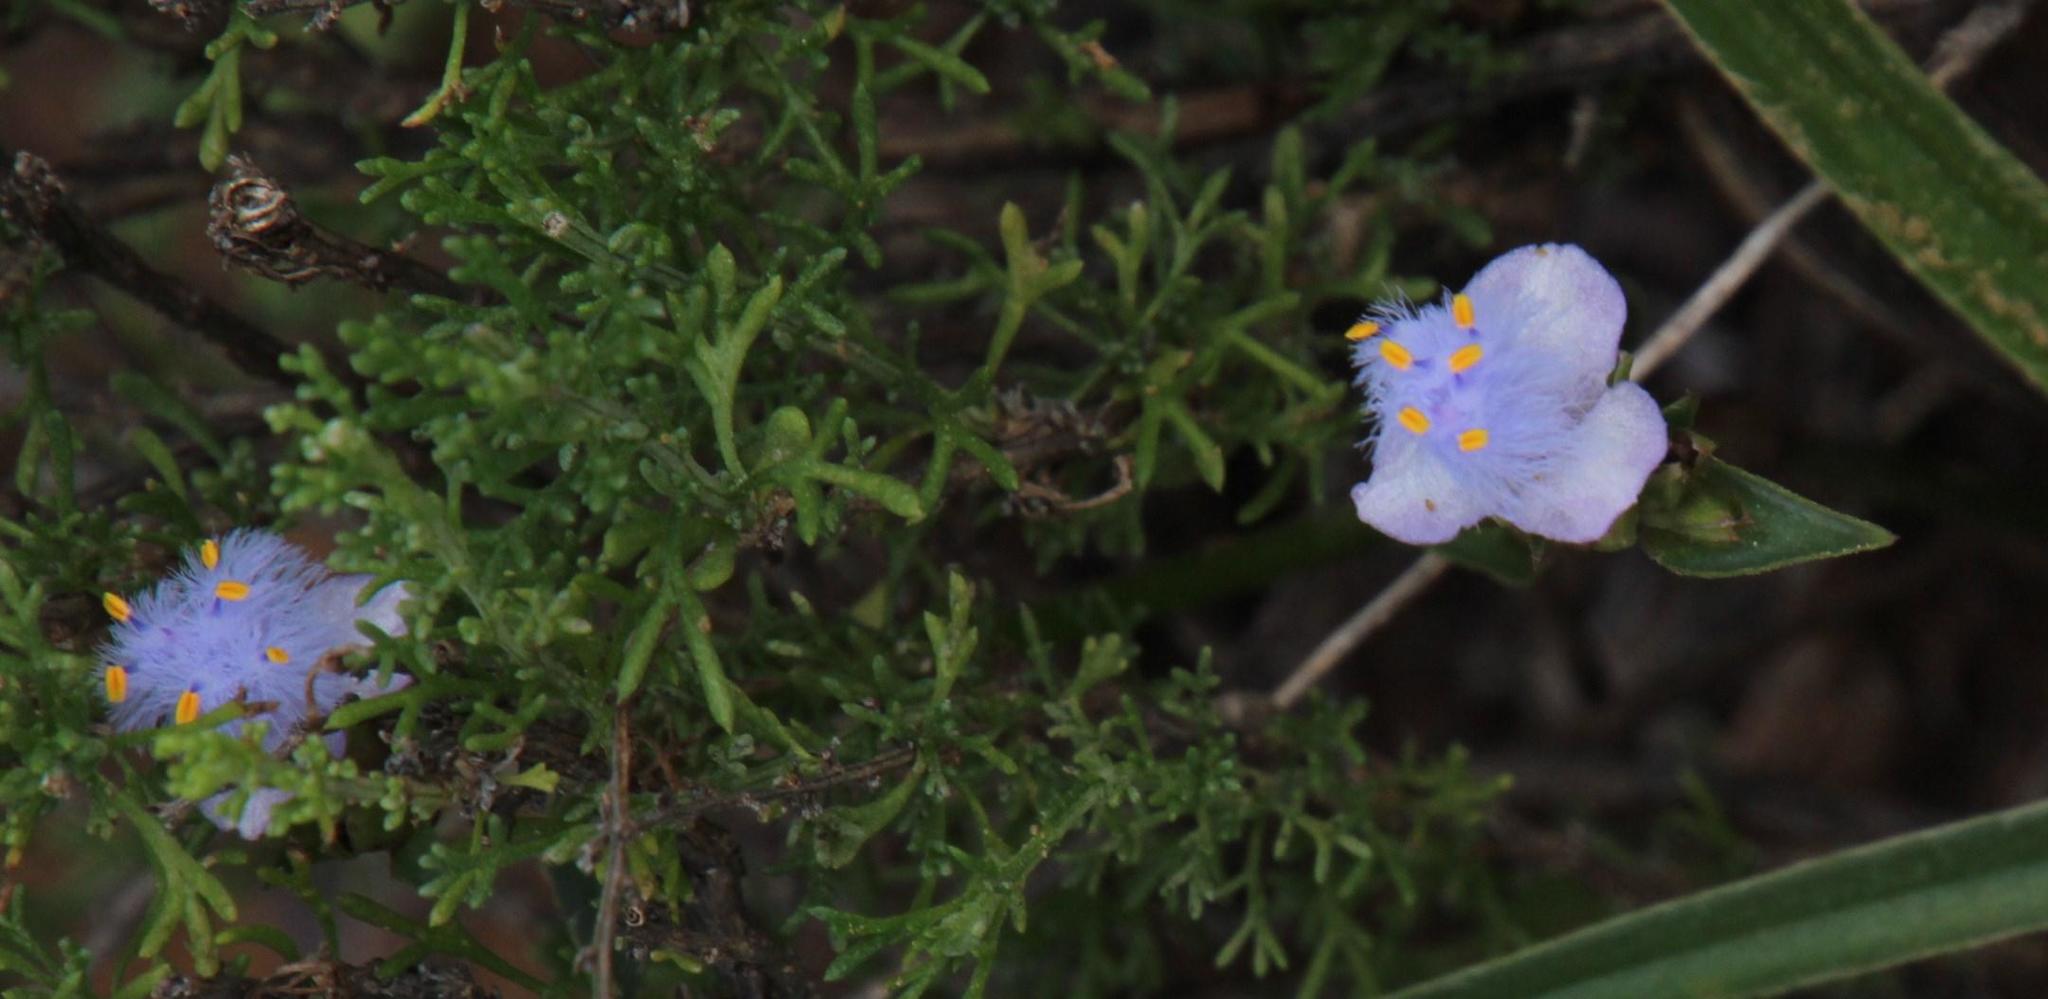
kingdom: Plantae
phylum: Tracheophyta
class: Liliopsida
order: Commelinales
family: Commelinaceae
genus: Cyanotis
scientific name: Cyanotis speciosa
